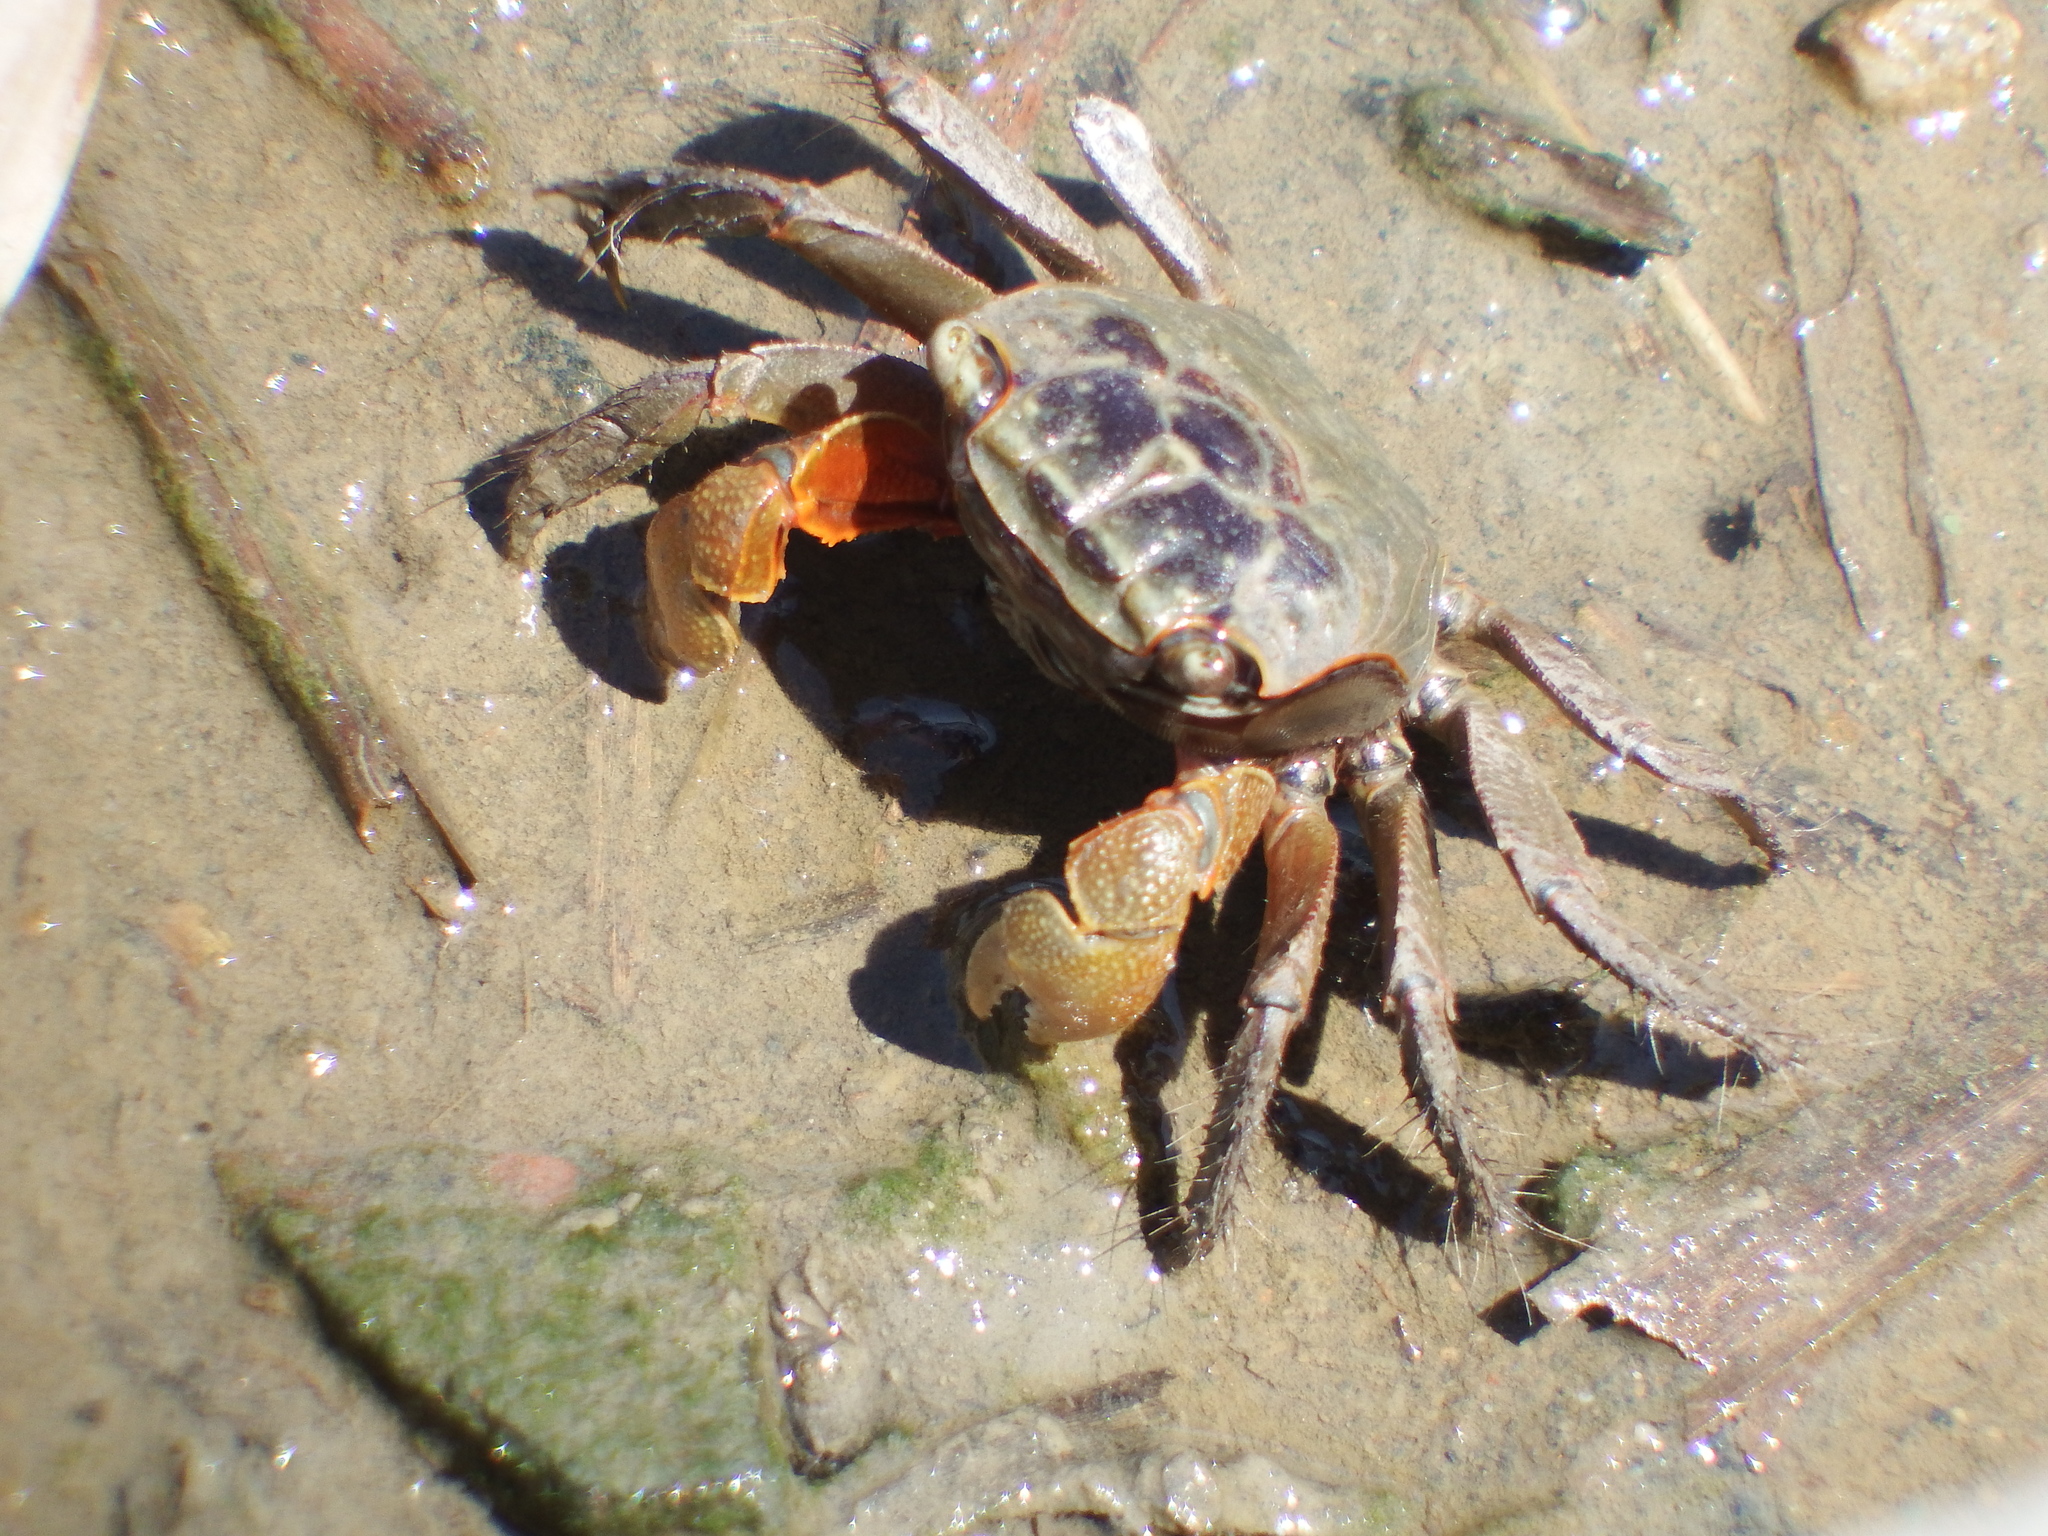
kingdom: Animalia
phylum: Arthropoda
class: Malacostraca
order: Decapoda
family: Sesarmidae
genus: Orisarma
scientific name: Orisarma dehaani
